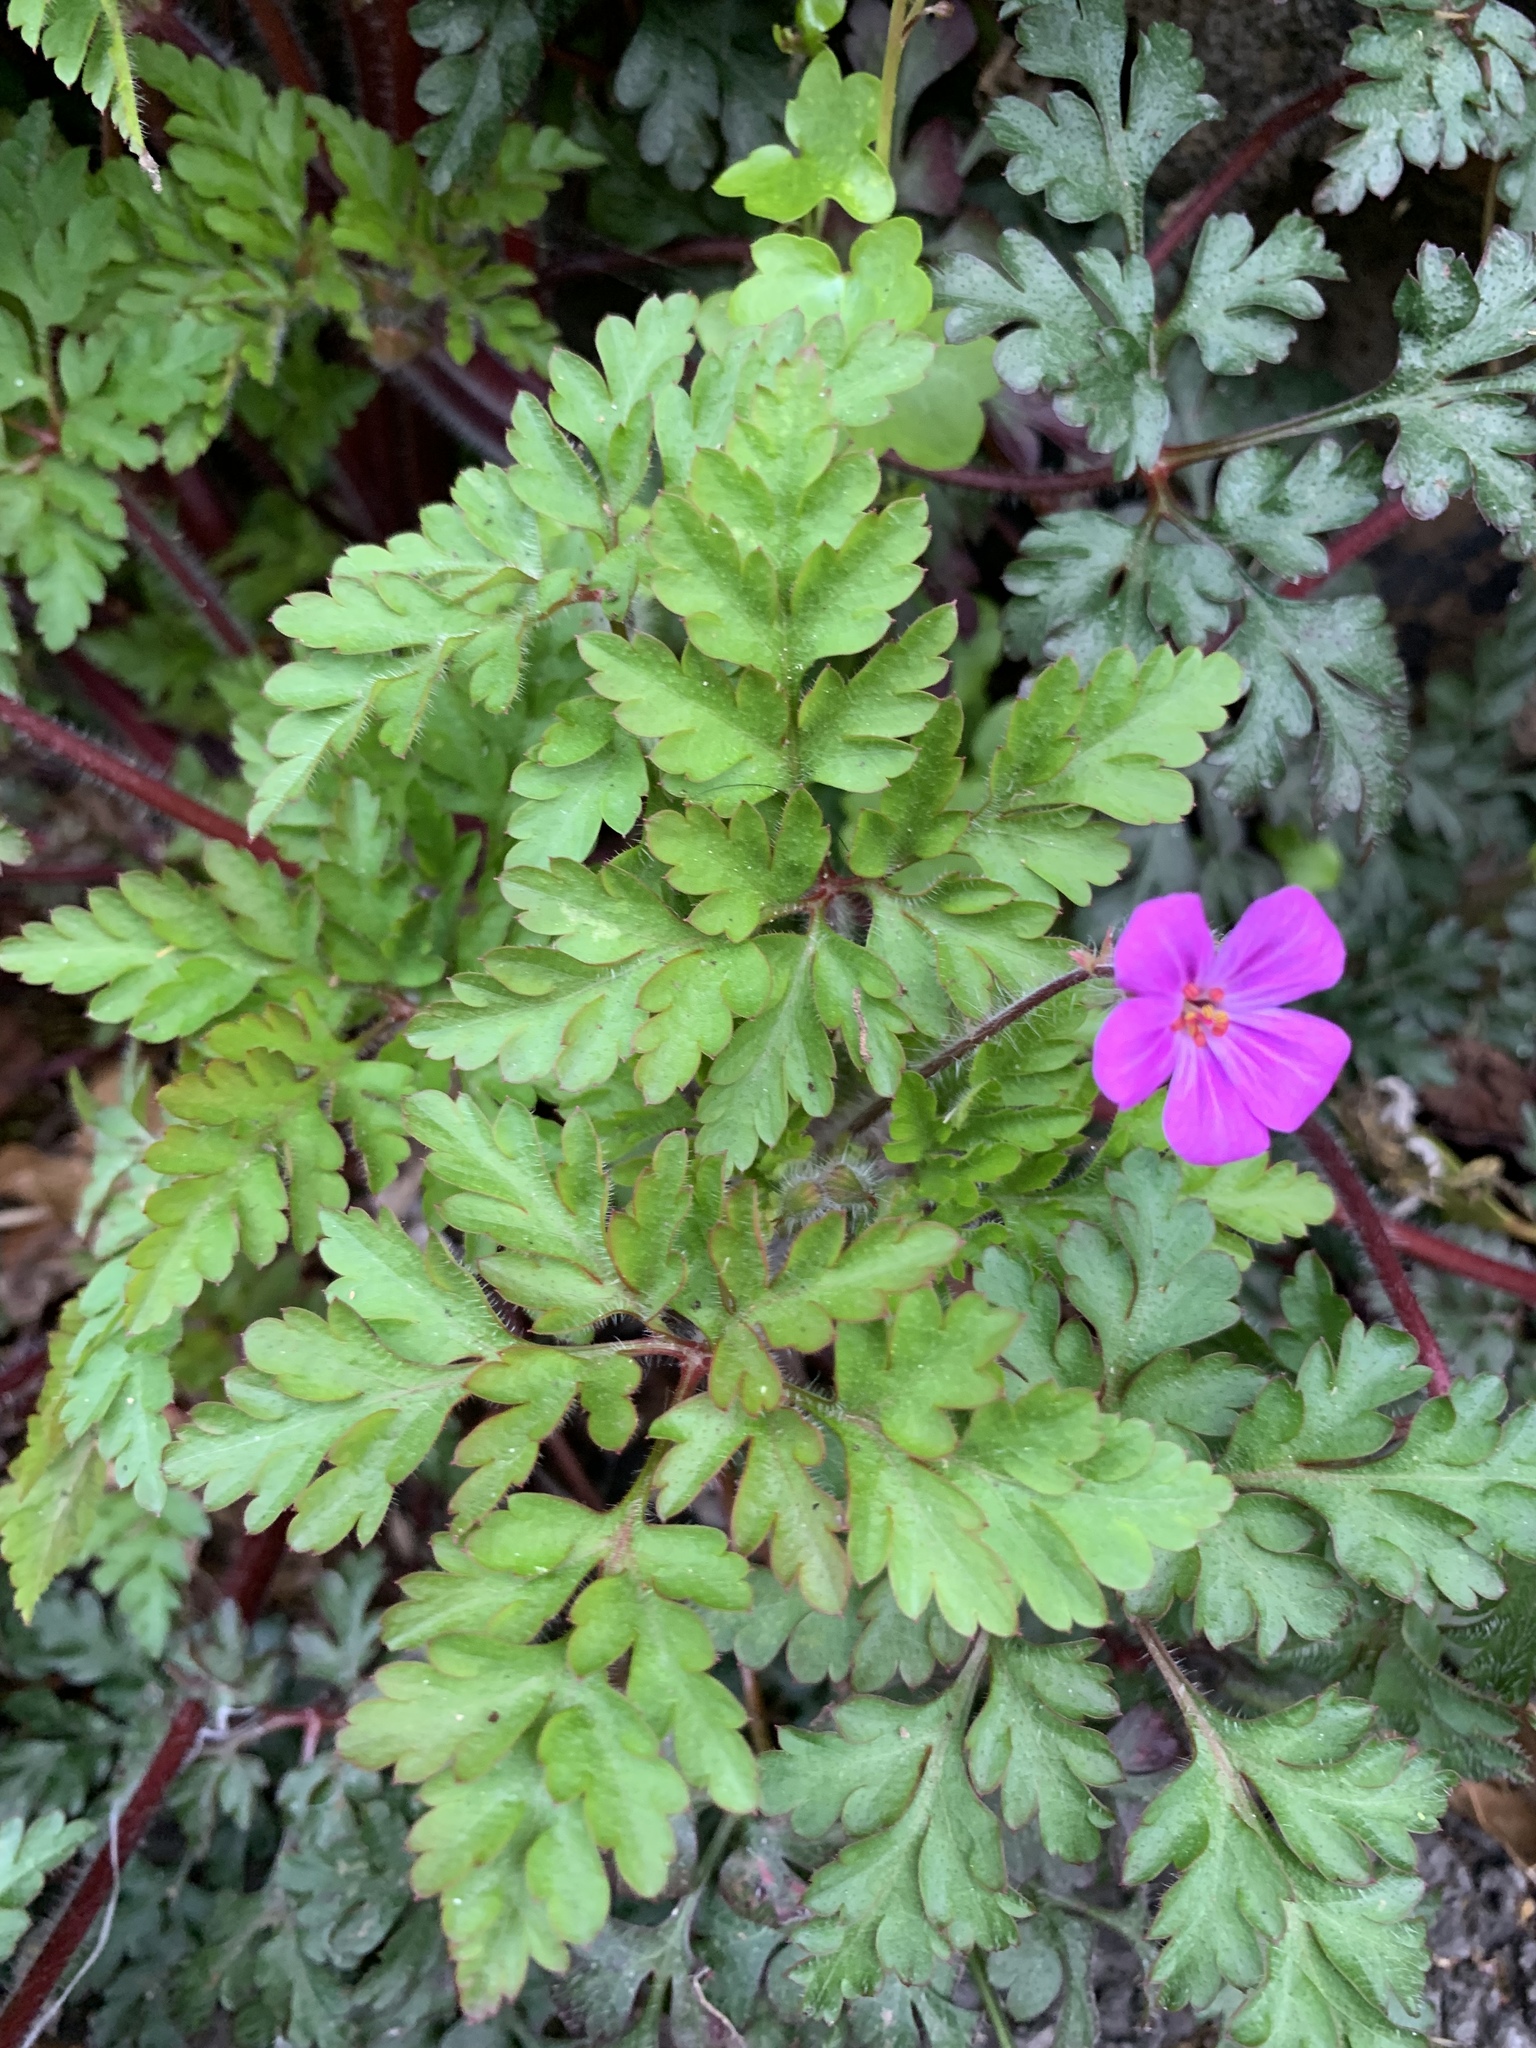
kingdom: Plantae
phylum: Tracheophyta
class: Magnoliopsida
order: Geraniales
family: Geraniaceae
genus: Geranium
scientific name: Geranium robertianum
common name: Herb-robert
